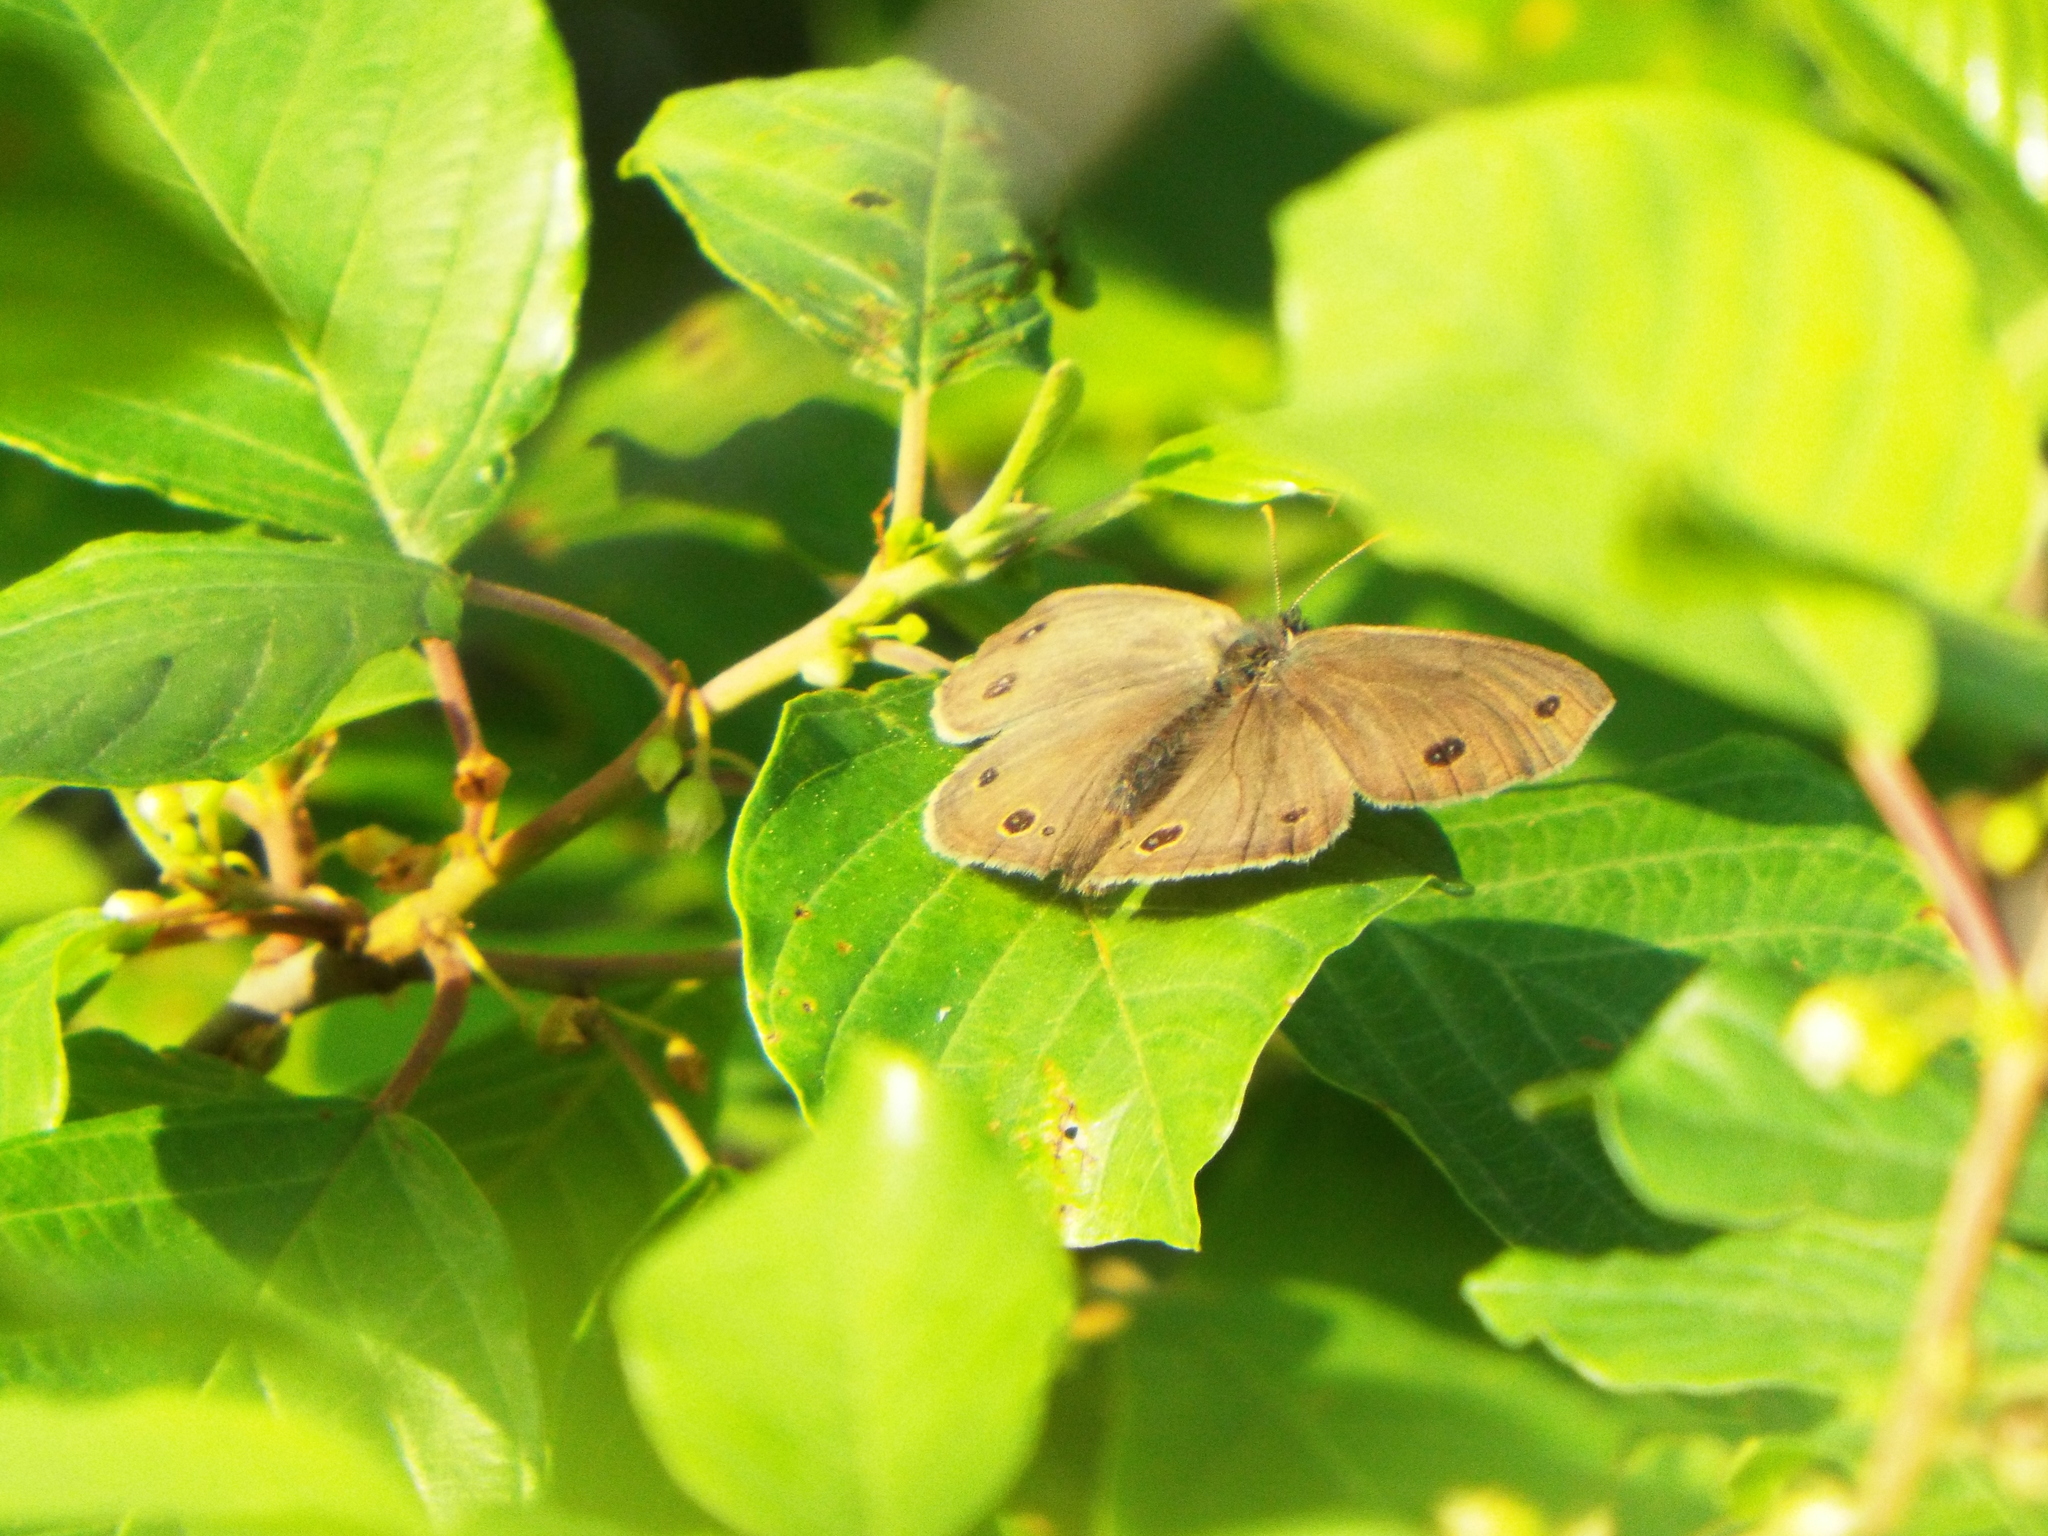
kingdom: Animalia
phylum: Arthropoda
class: Insecta
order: Lepidoptera
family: Nymphalidae
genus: Euptychia
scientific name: Euptychia cymela
